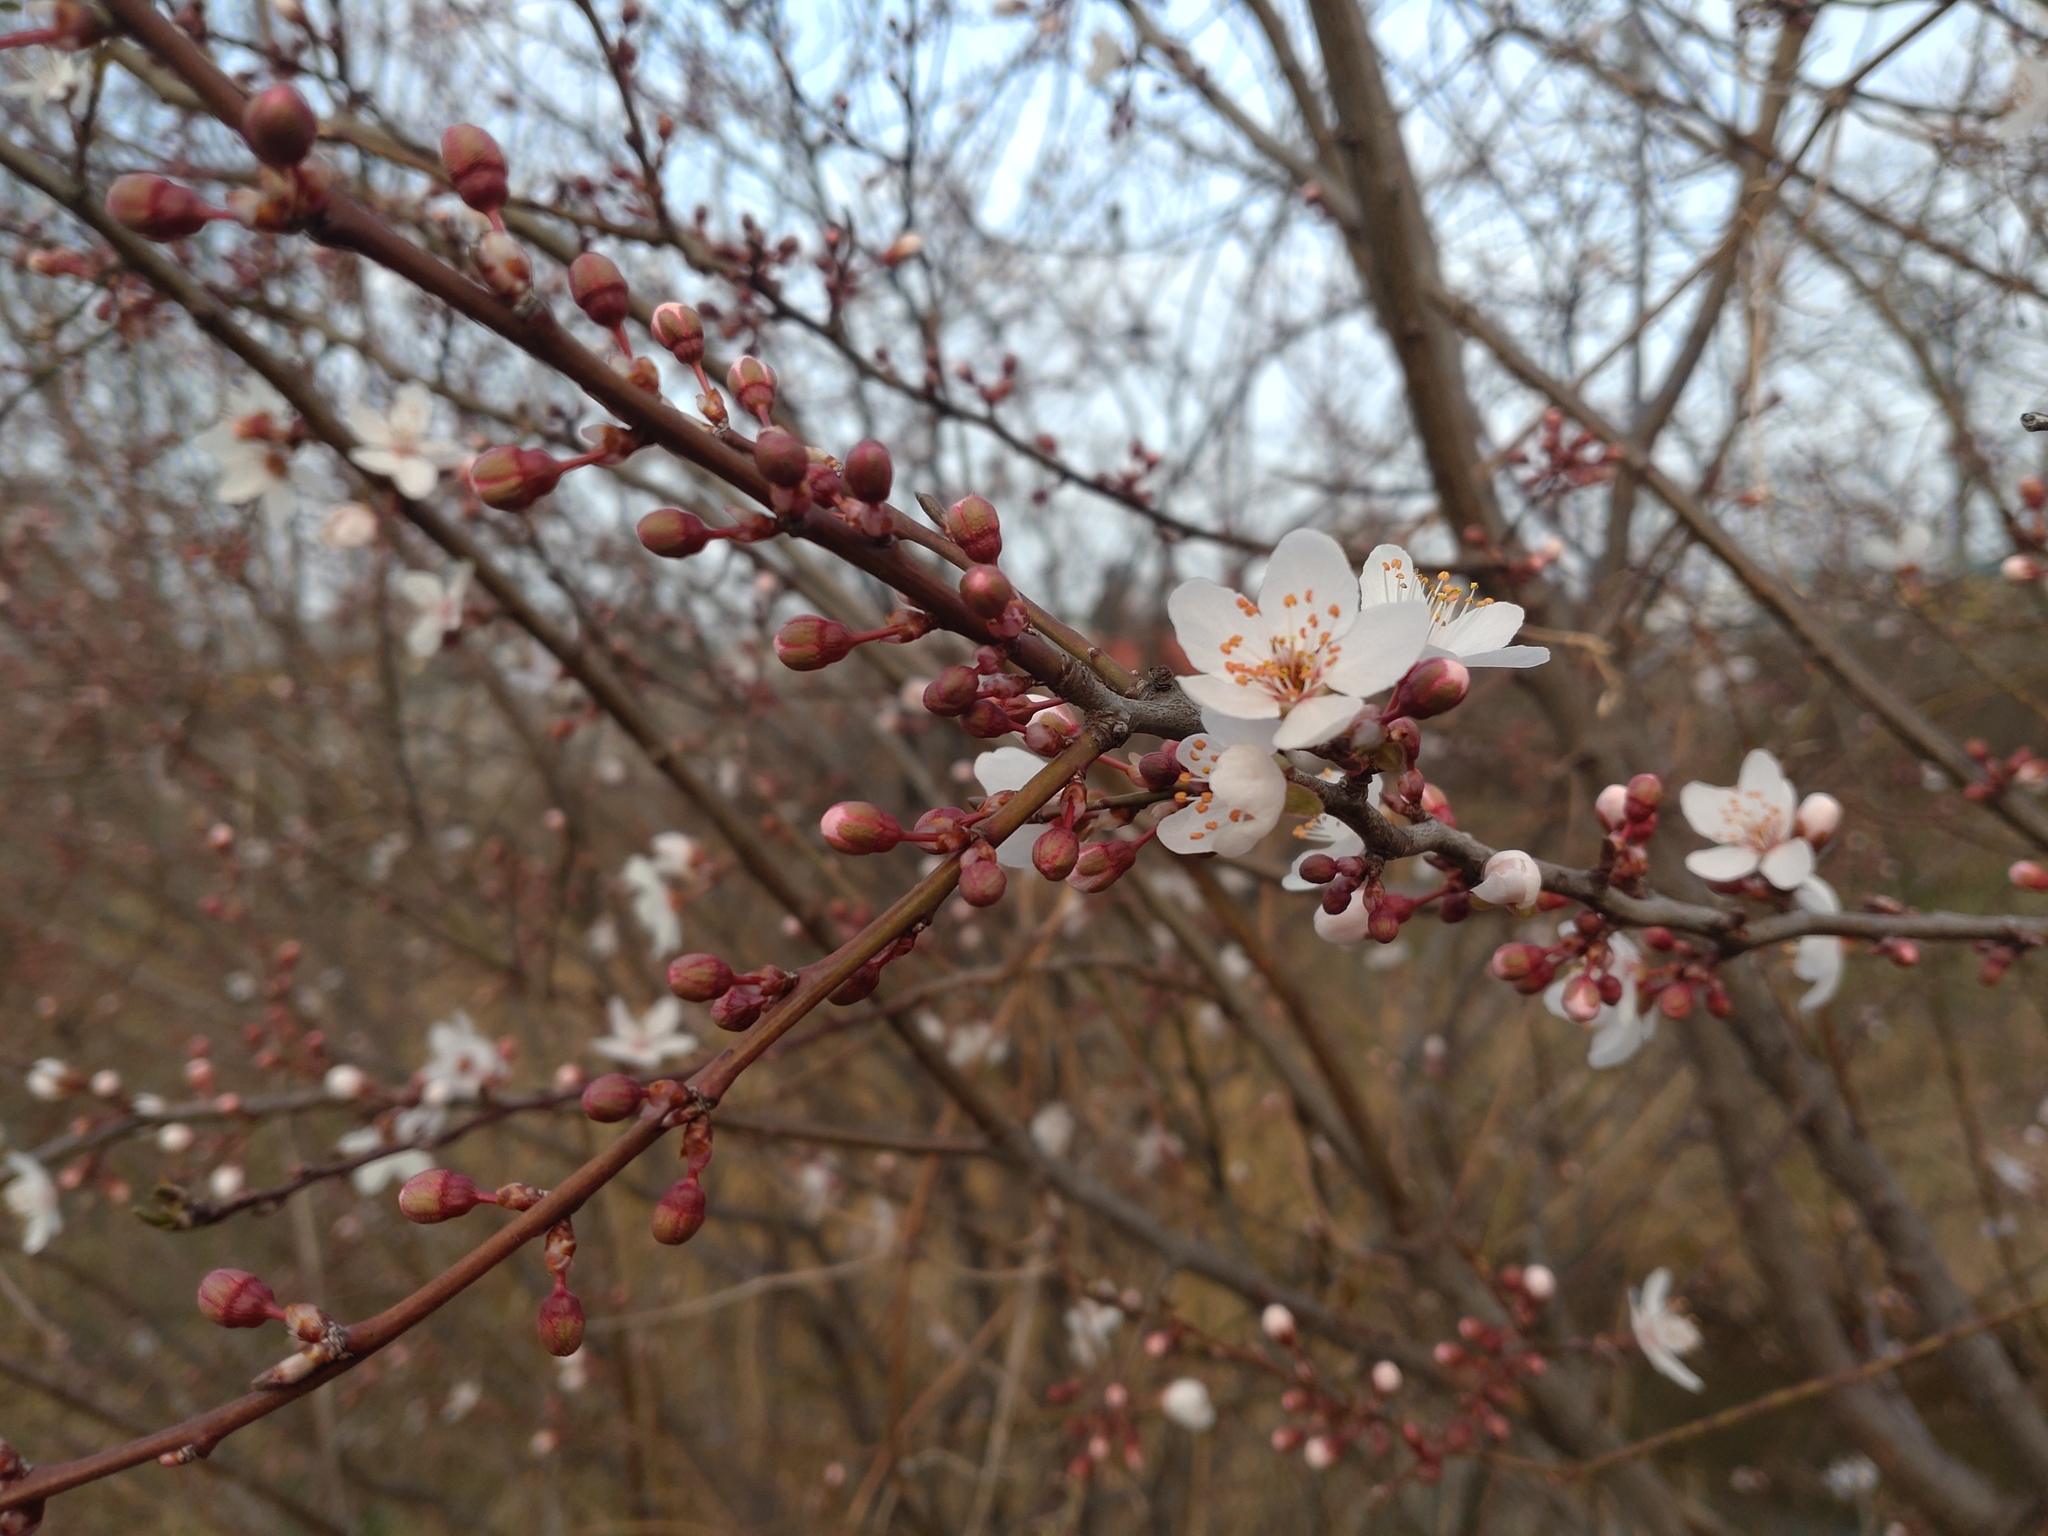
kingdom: Plantae
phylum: Tracheophyta
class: Magnoliopsida
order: Rosales
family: Rosaceae
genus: Prunus
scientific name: Prunus cerasifera
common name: Cherry plum
